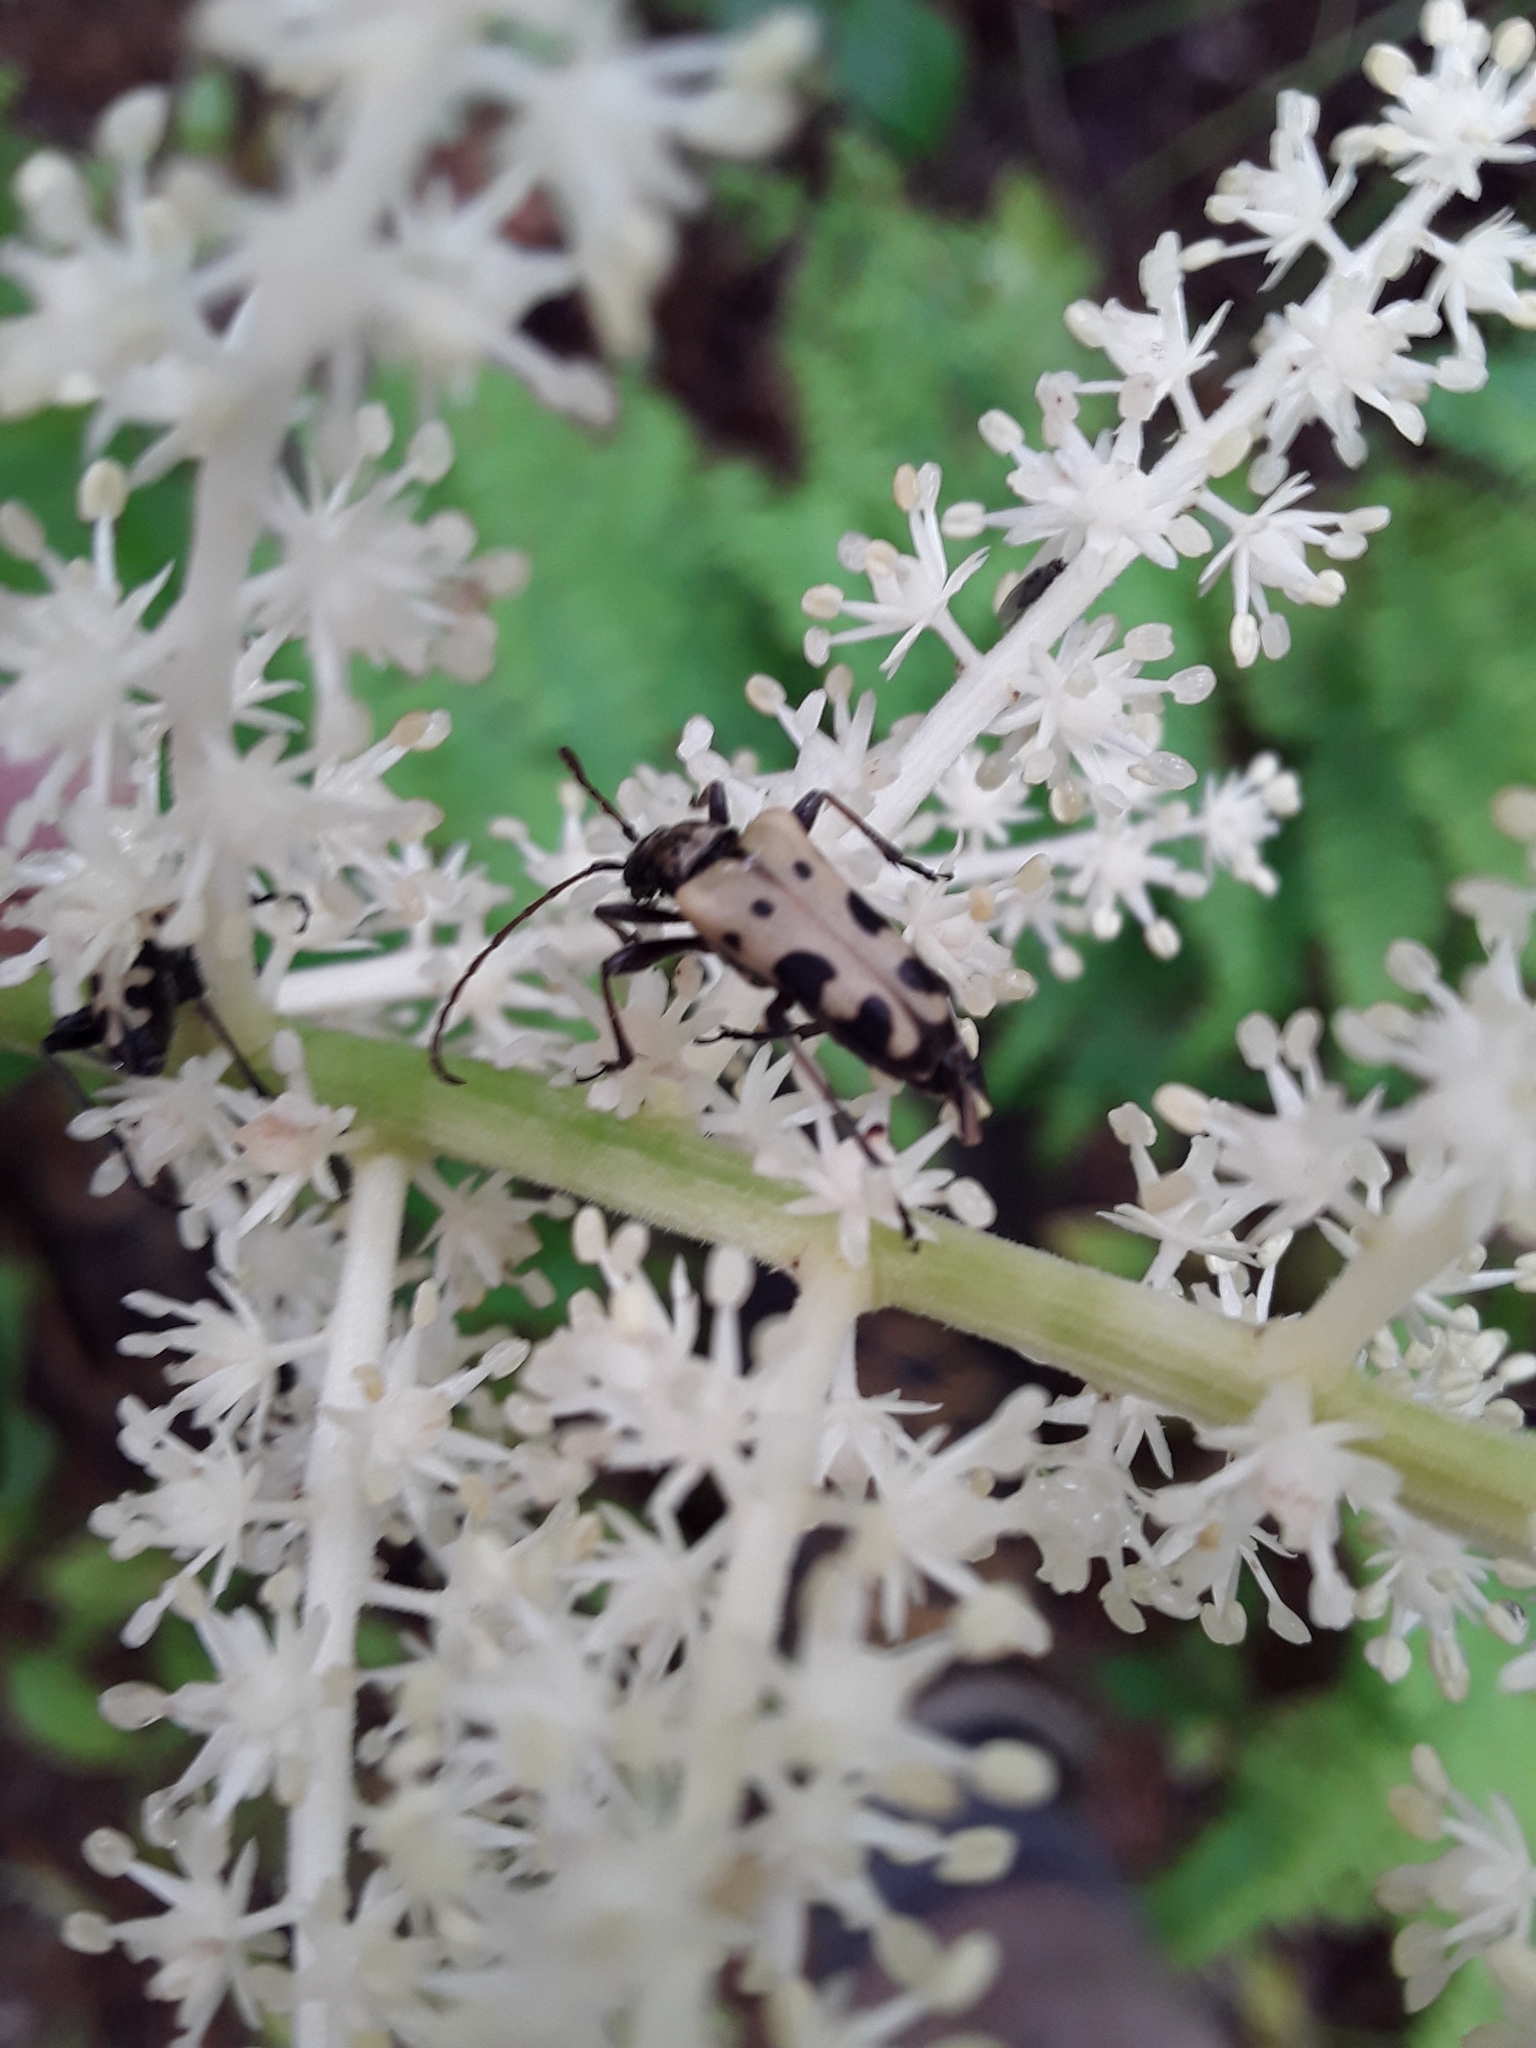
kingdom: Animalia
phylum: Arthropoda
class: Insecta
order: Coleoptera
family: Cerambycidae
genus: Evodinus
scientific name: Evodinus monticola
